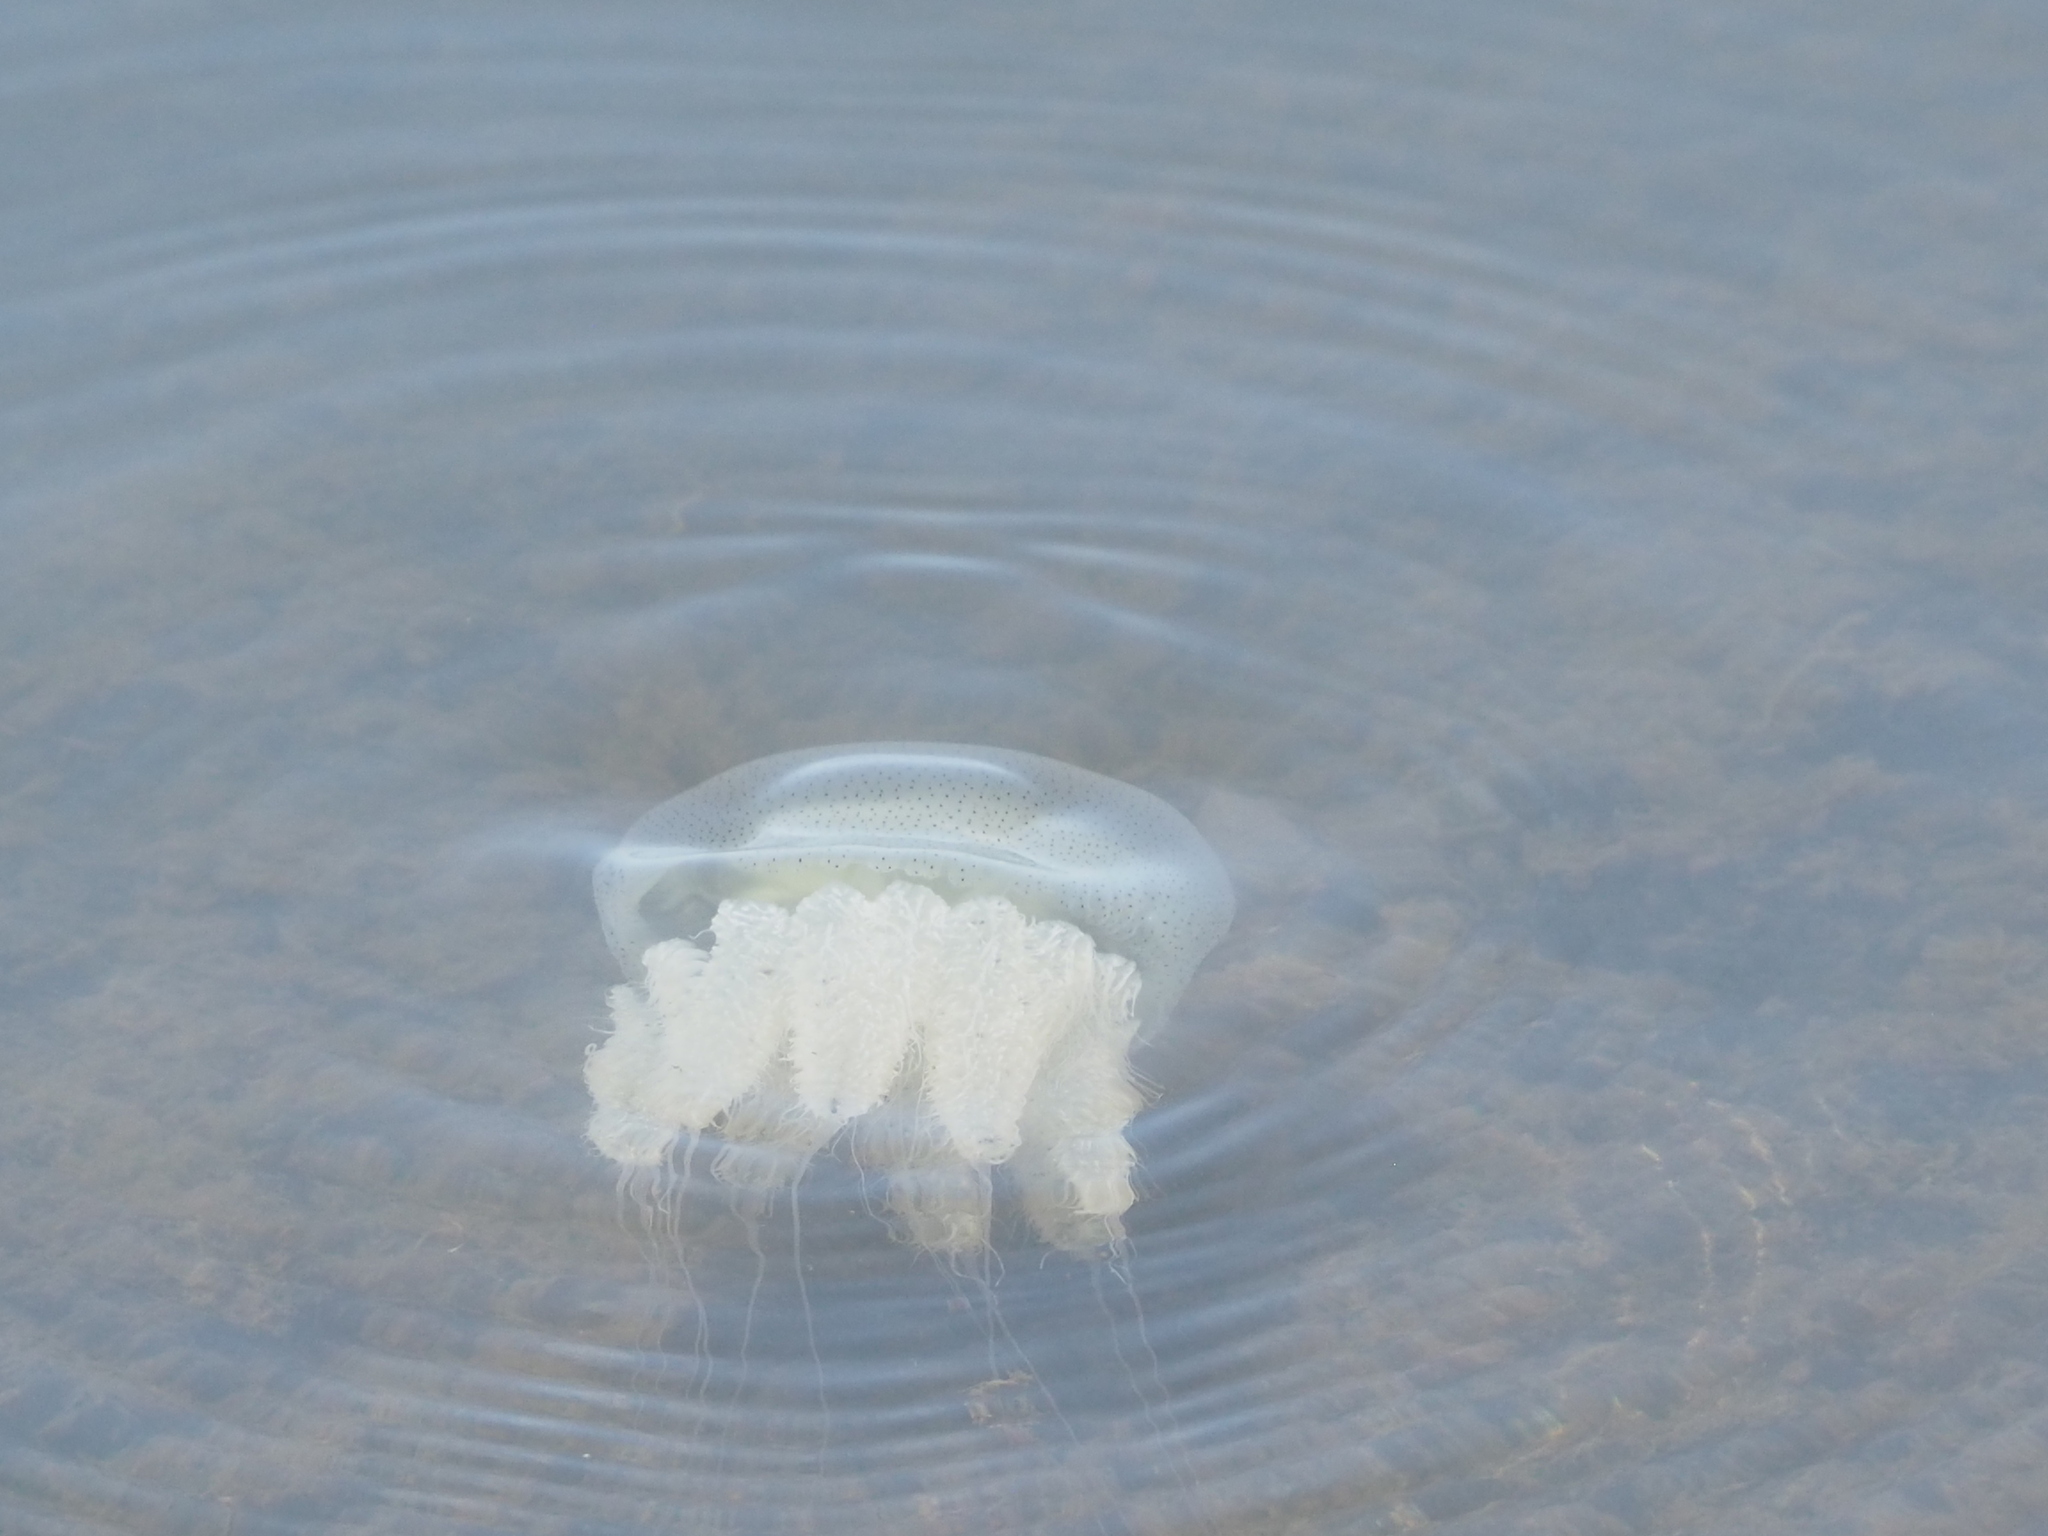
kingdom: Animalia
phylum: Cnidaria
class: Scyphozoa
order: Rhizostomeae
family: Catostylidae
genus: Acromitus
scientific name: Acromitus flagellatus
